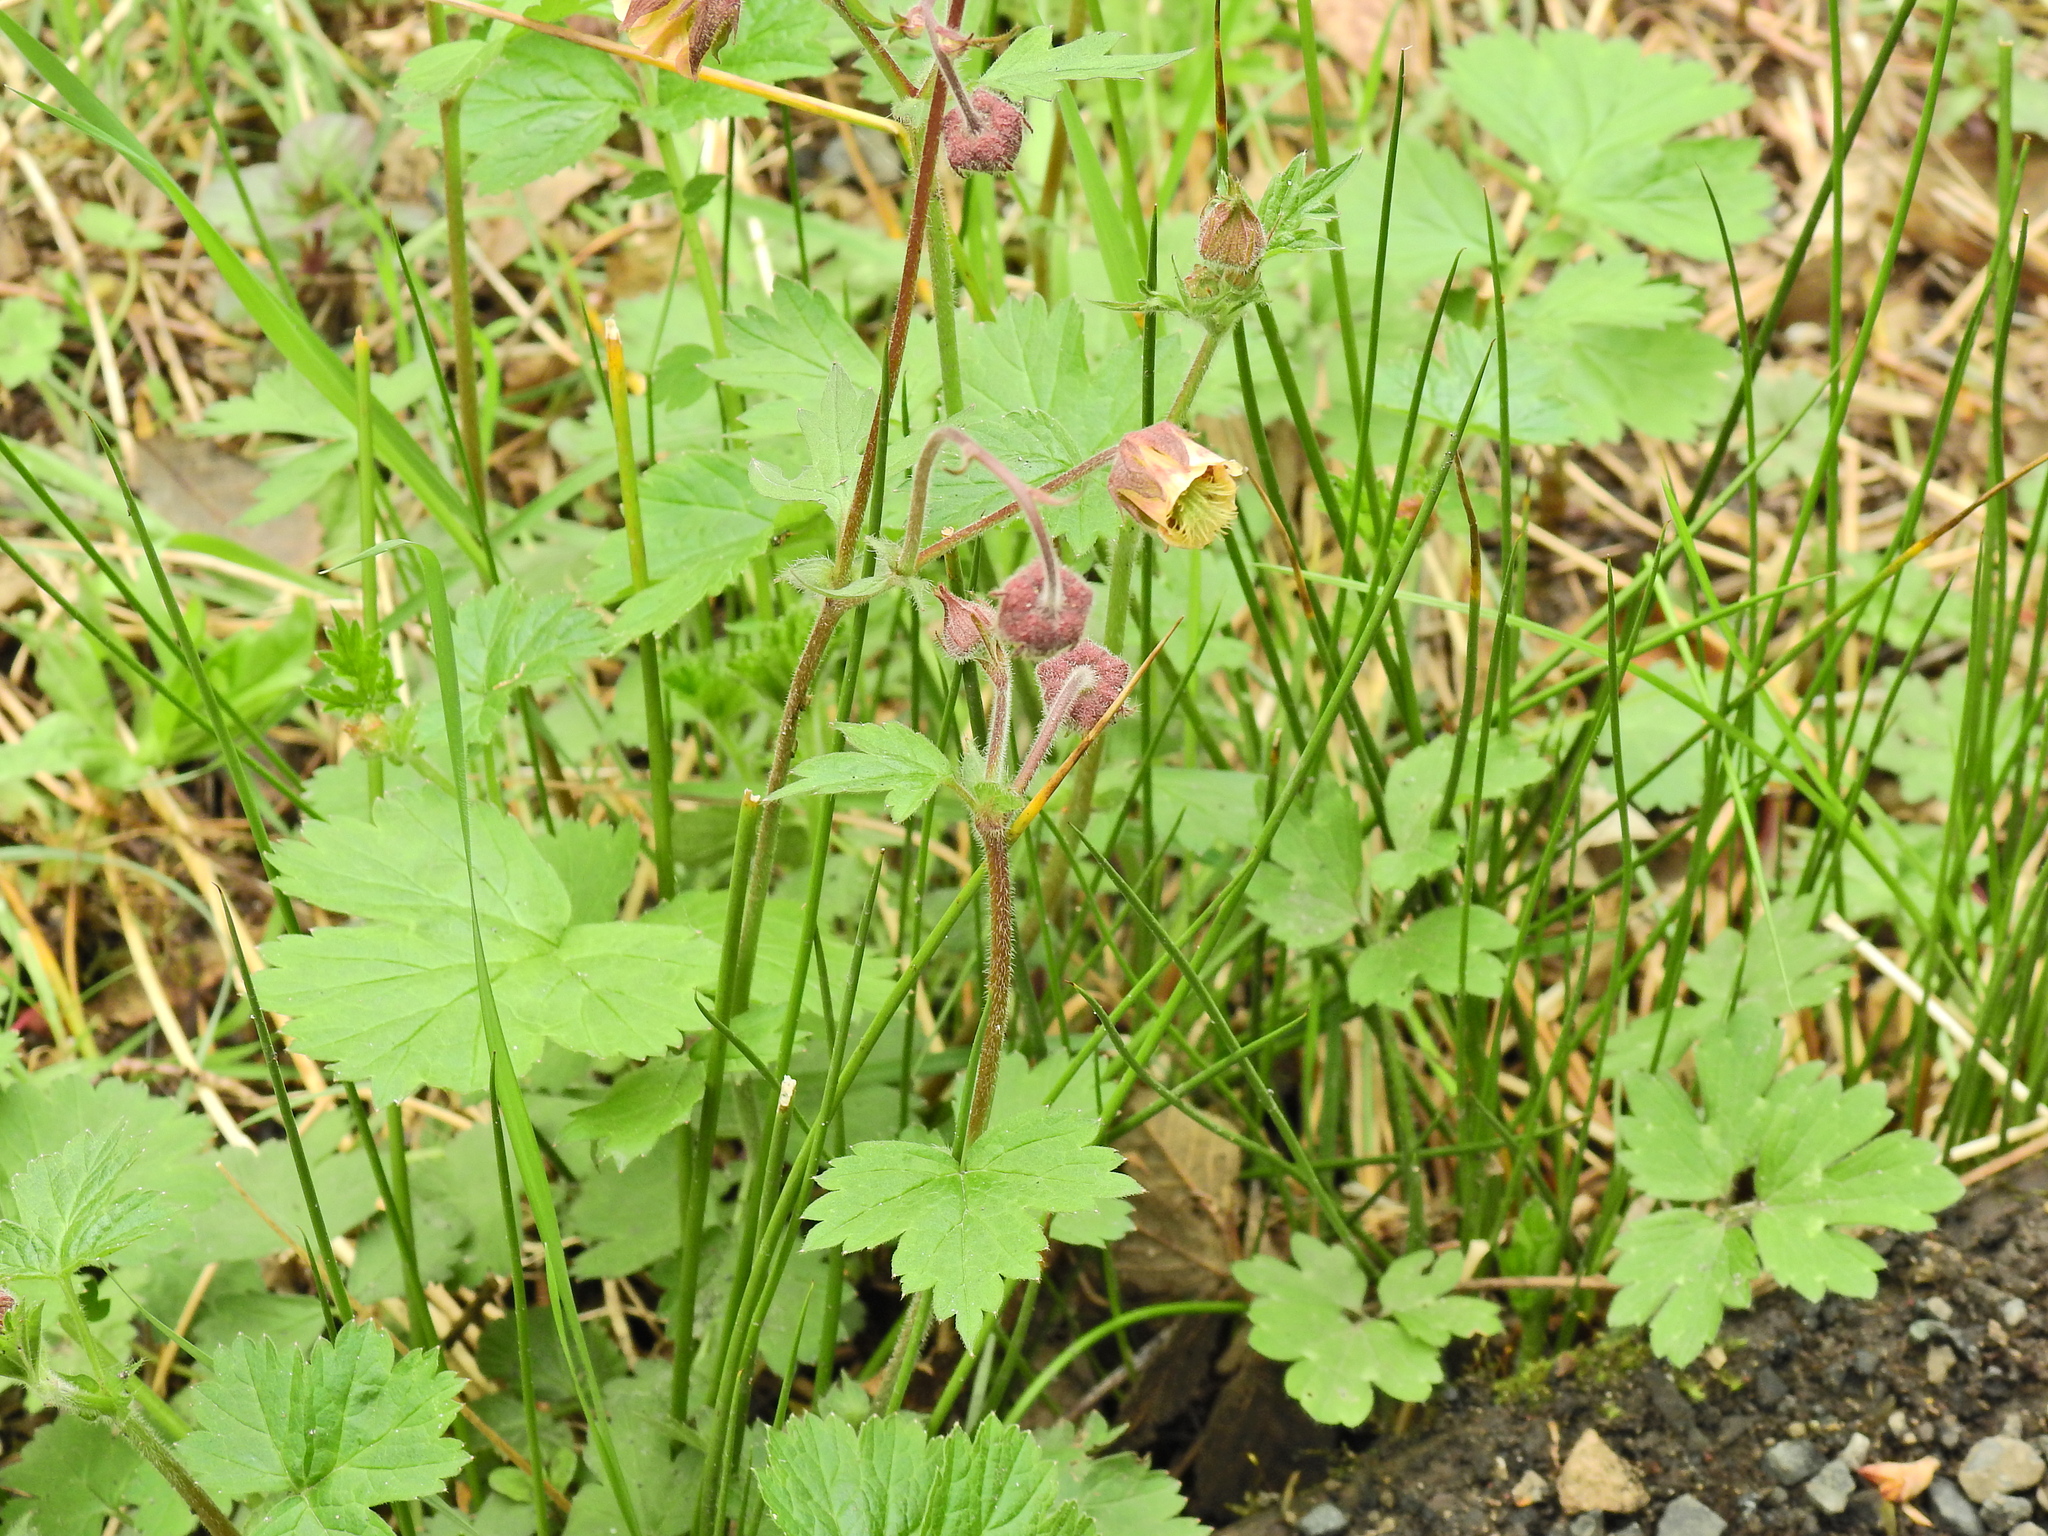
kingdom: Plantae
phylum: Tracheophyta
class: Magnoliopsida
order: Rosales
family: Rosaceae
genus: Geum
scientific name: Geum rivale
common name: Water avens
